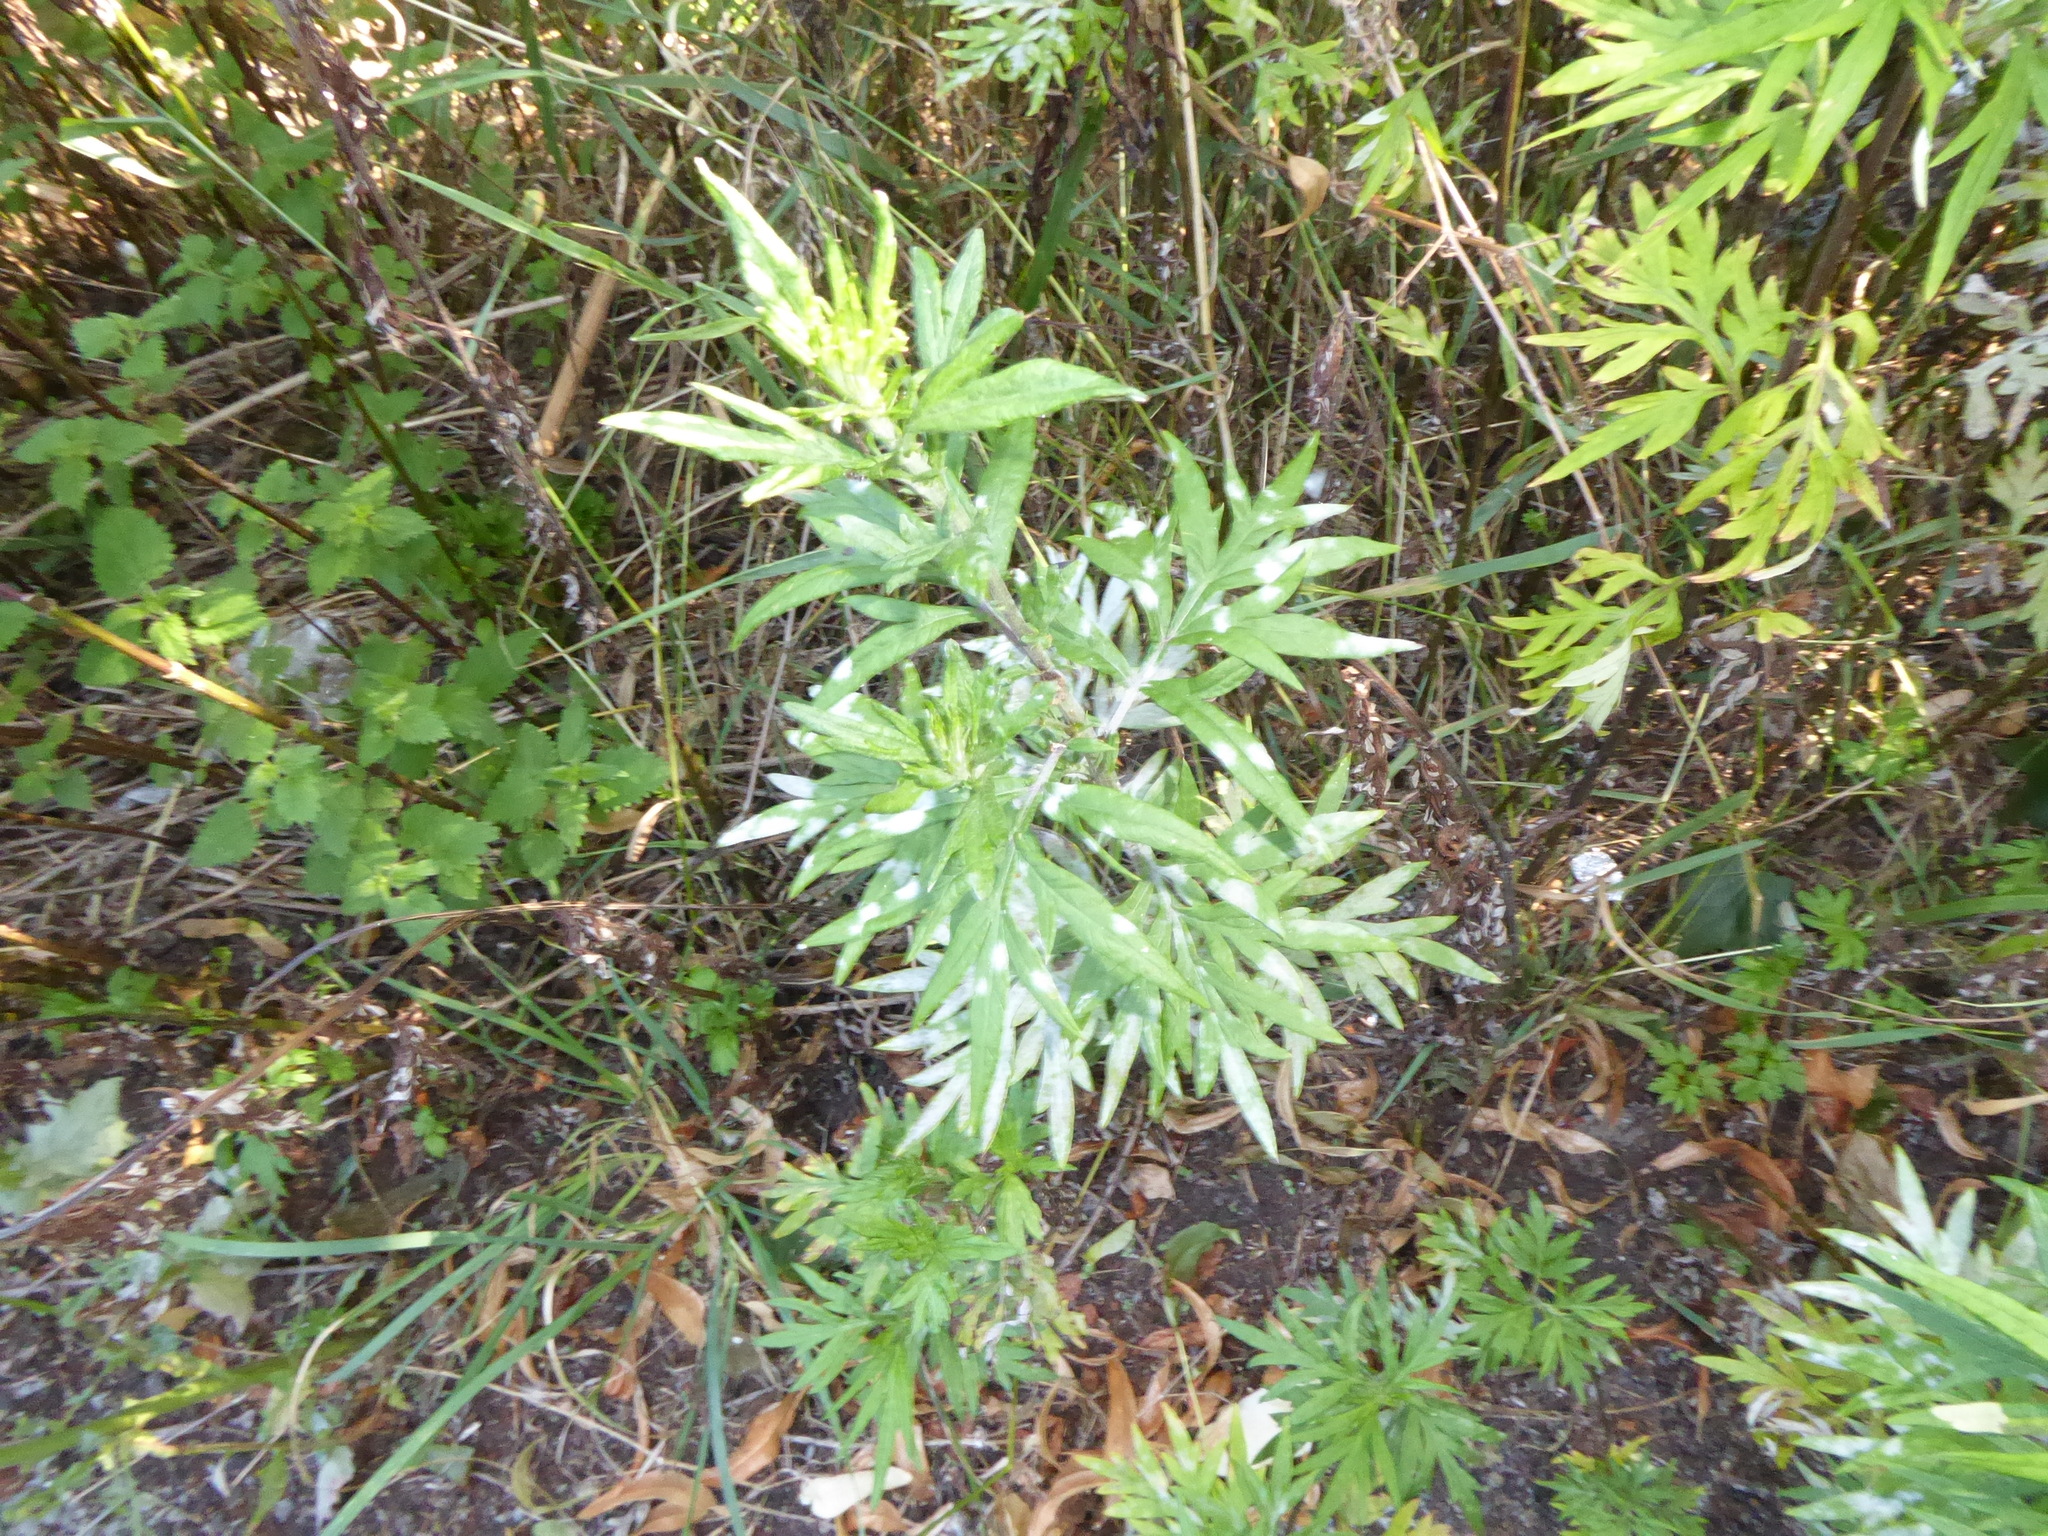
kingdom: Plantae
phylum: Tracheophyta
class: Magnoliopsida
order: Asterales
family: Asteraceae
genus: Artemisia
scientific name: Artemisia vulgaris
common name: Mugwort
